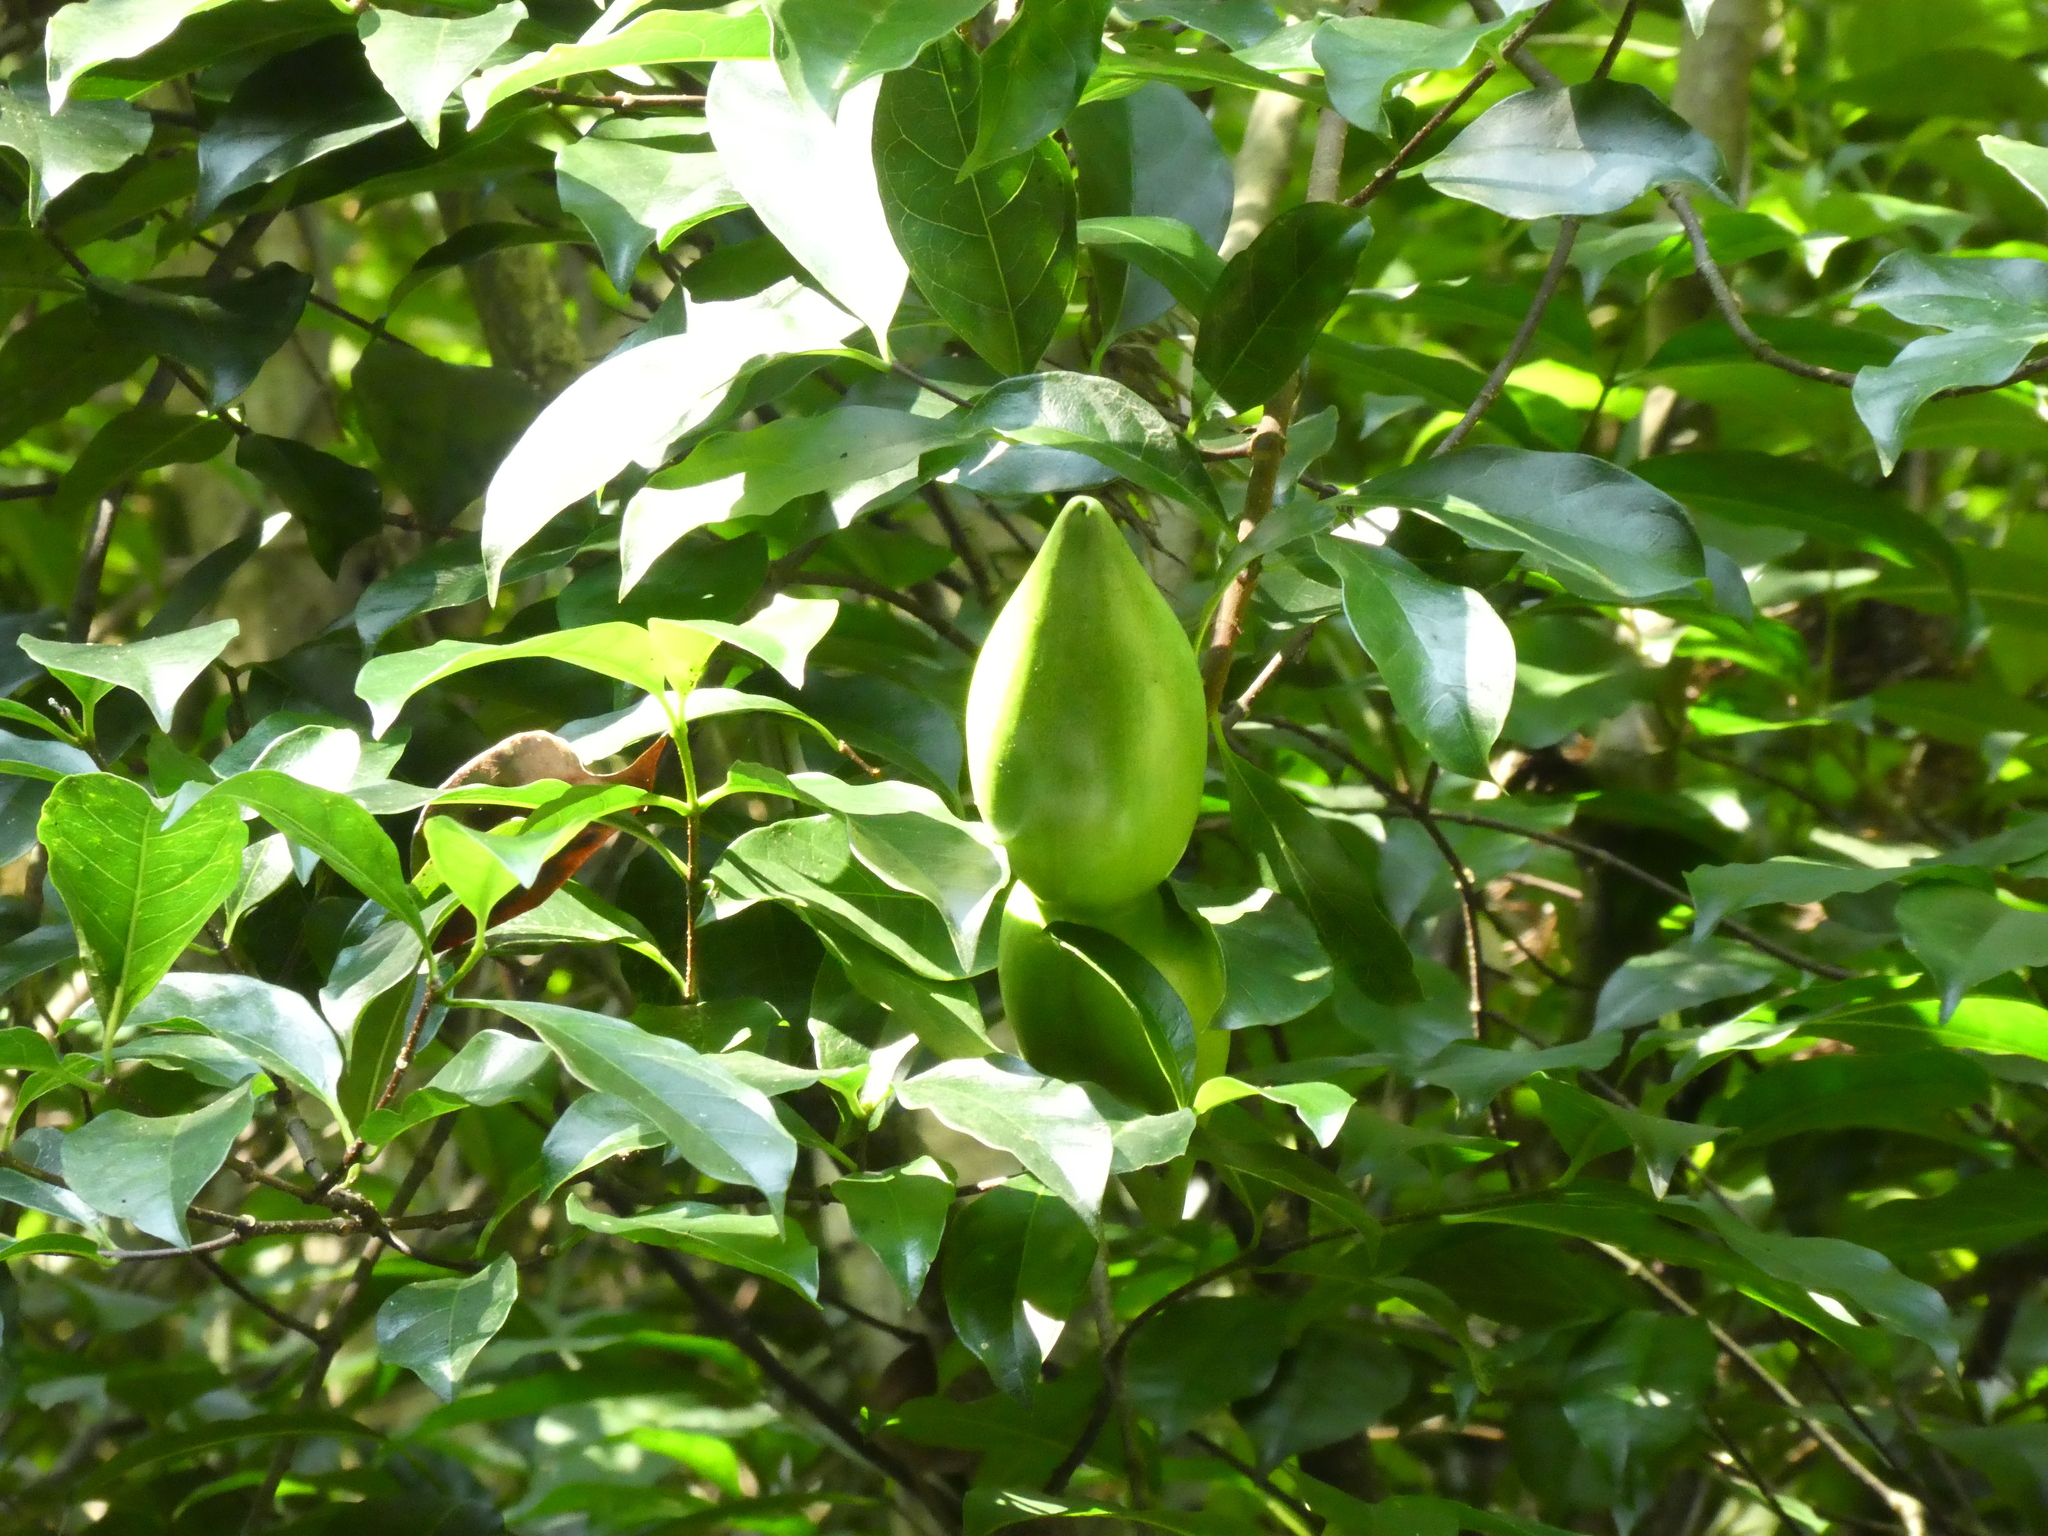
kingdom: Plantae
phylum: Tracheophyta
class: Magnoliopsida
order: Gentianales
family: Apocynaceae
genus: Strophanthus
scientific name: Strophanthus divaricatus
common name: Goat-horns
